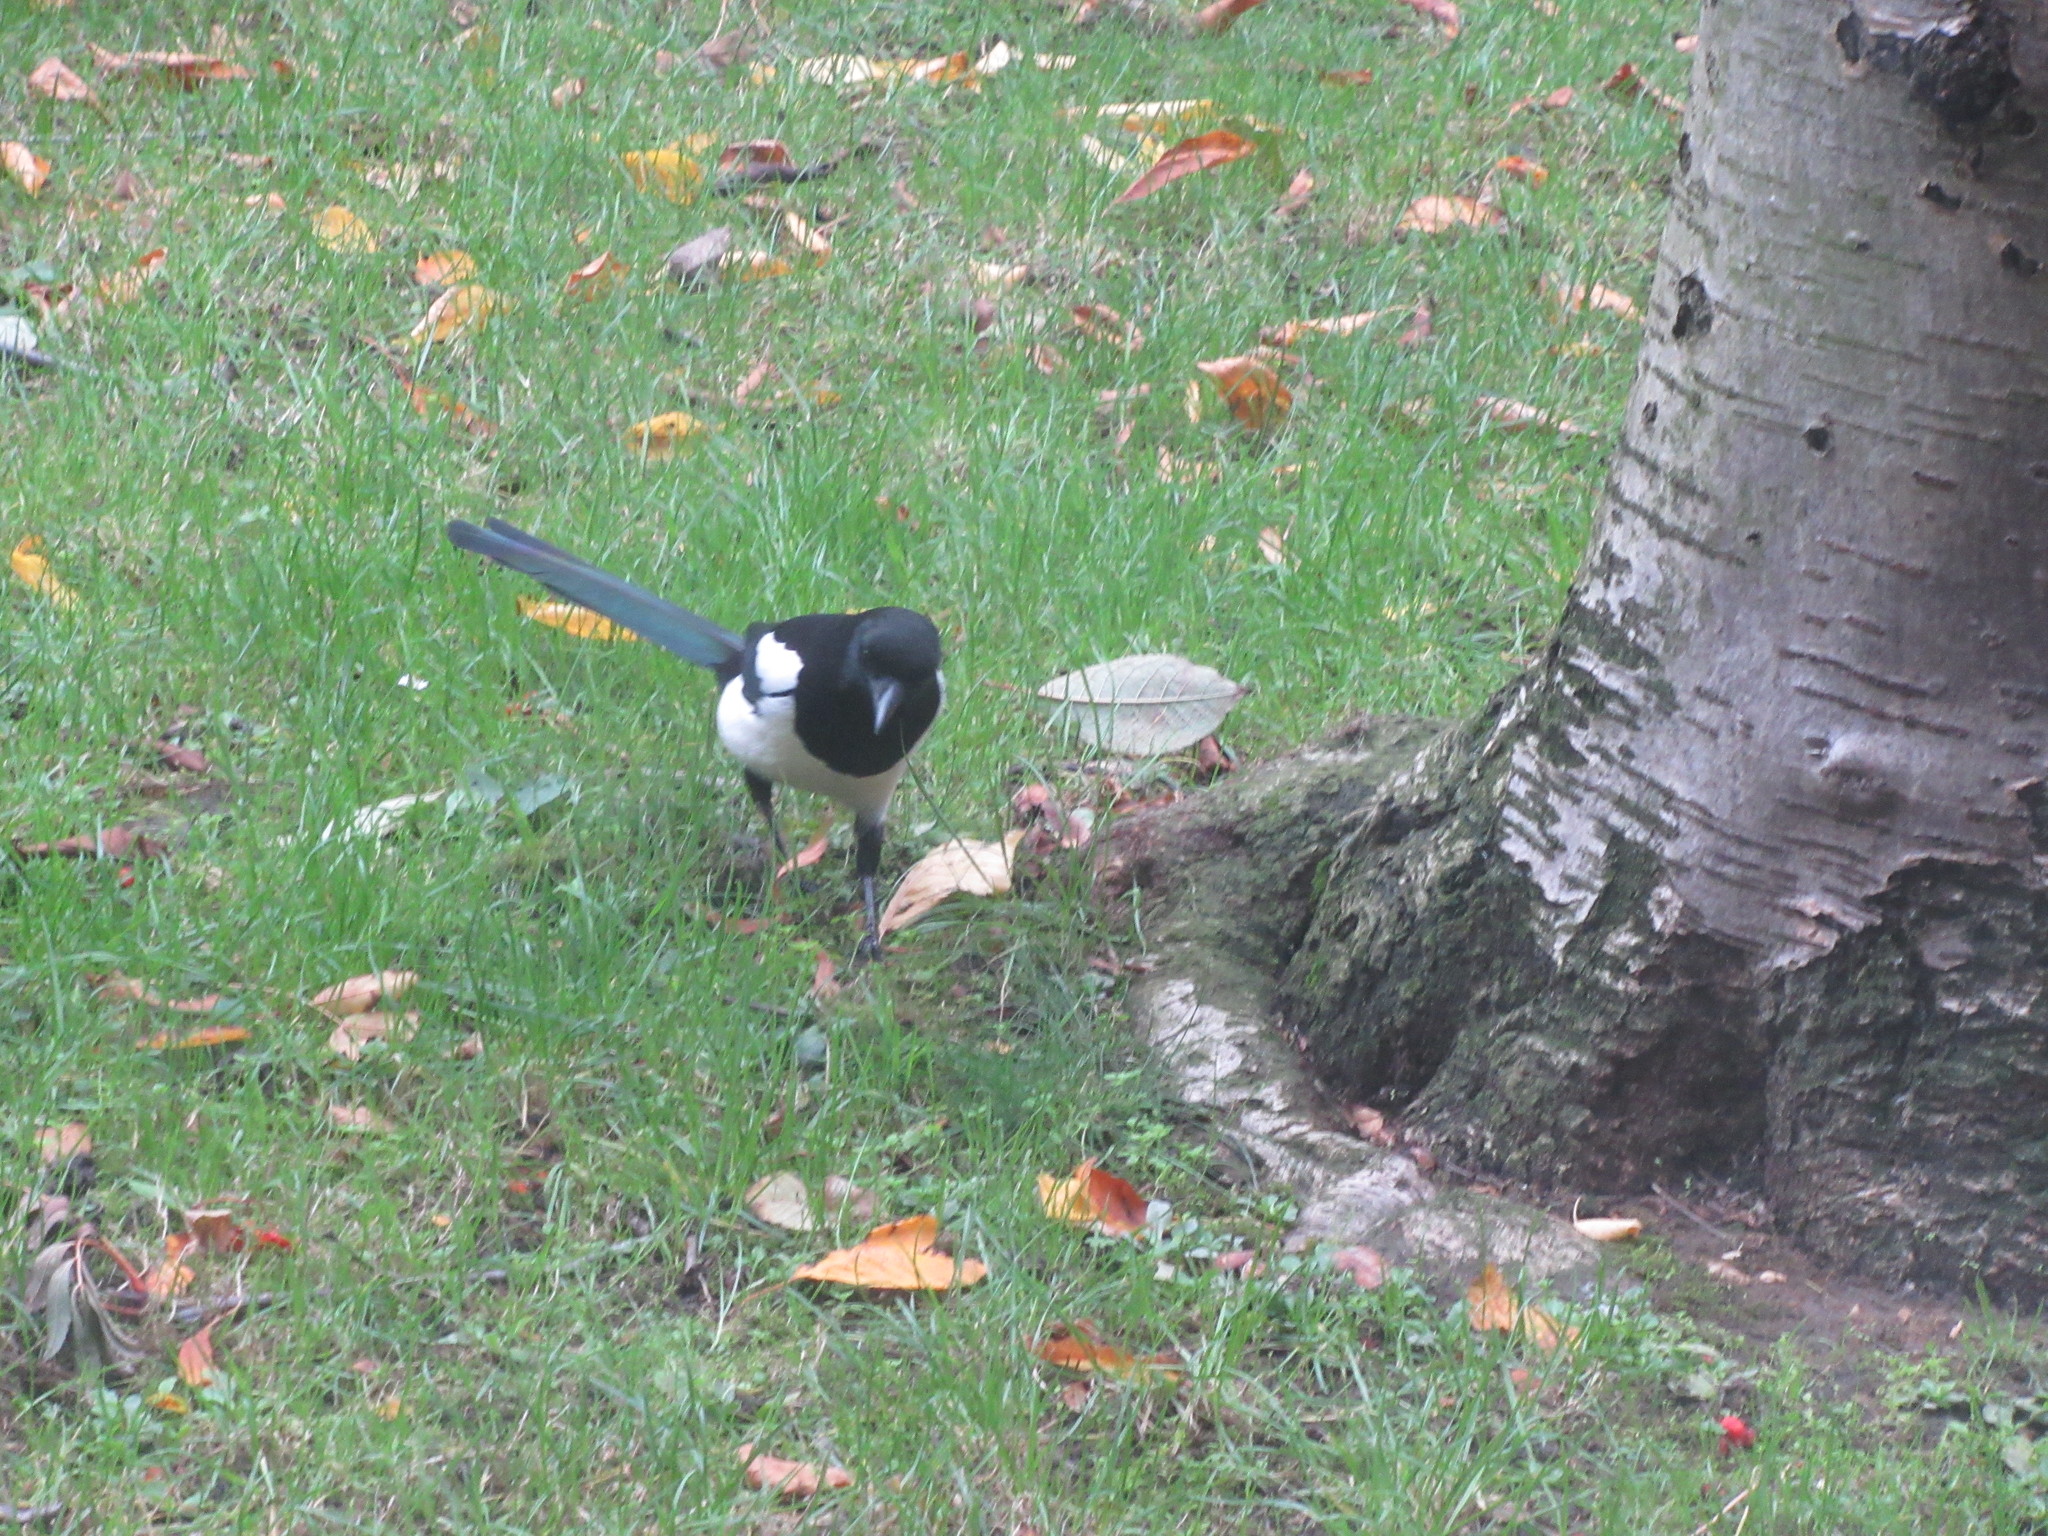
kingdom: Animalia
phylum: Chordata
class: Aves
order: Passeriformes
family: Corvidae
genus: Pica
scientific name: Pica pica
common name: Eurasian magpie
